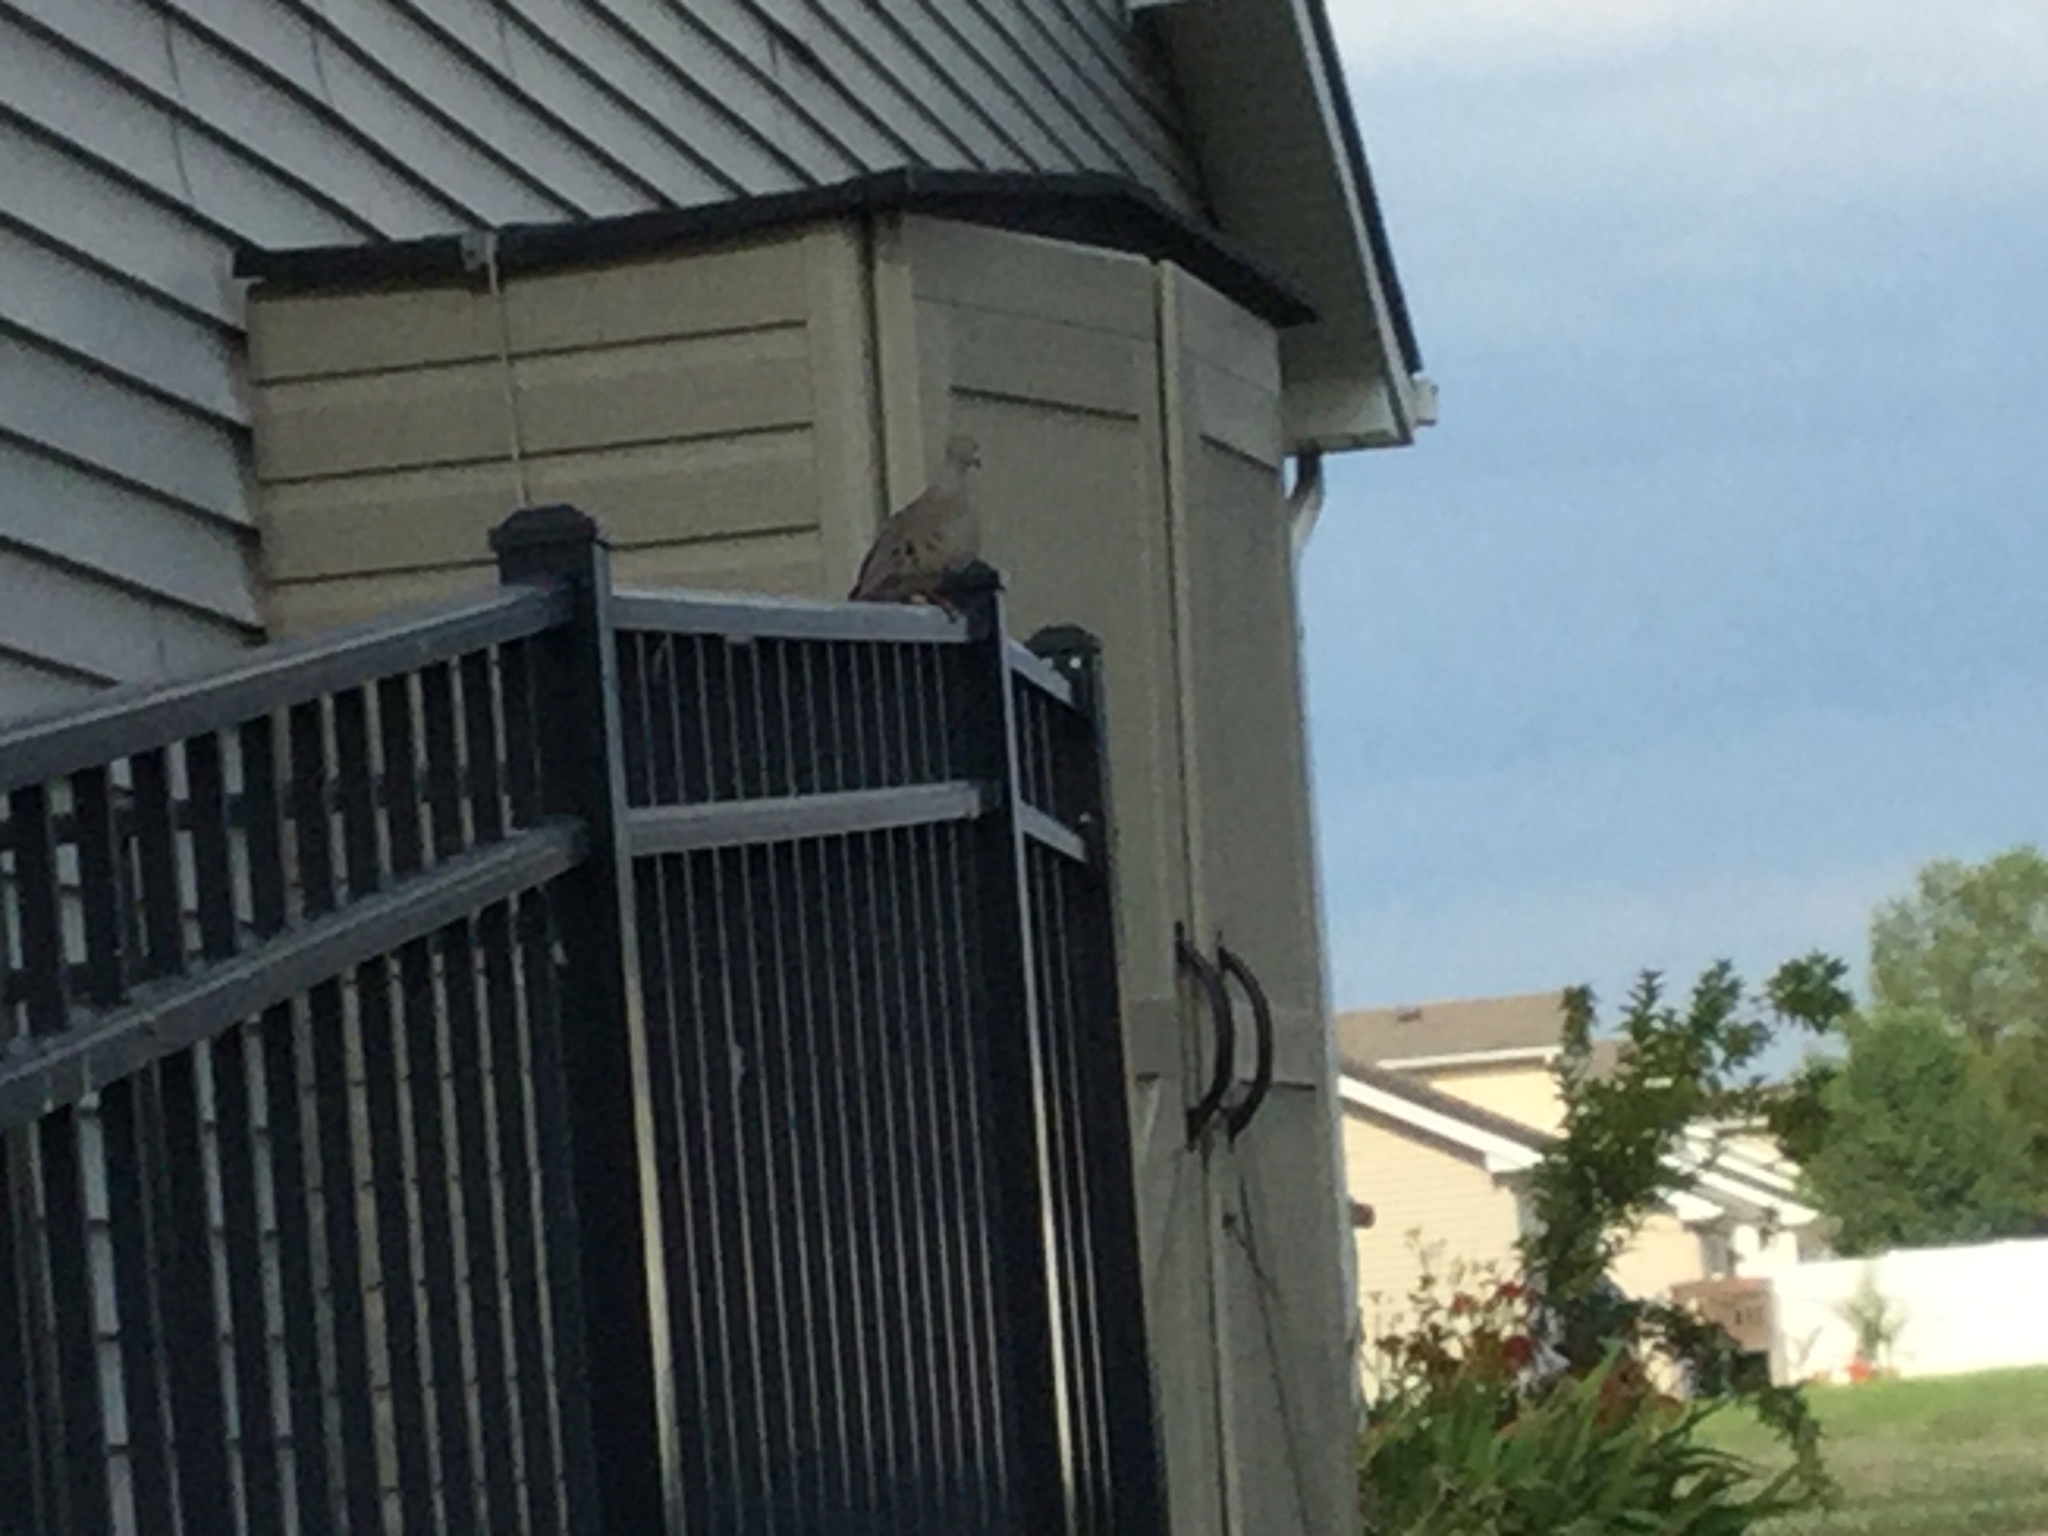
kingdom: Animalia
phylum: Chordata
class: Aves
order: Columbiformes
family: Columbidae
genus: Zenaida
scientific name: Zenaida macroura
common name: Mourning dove
